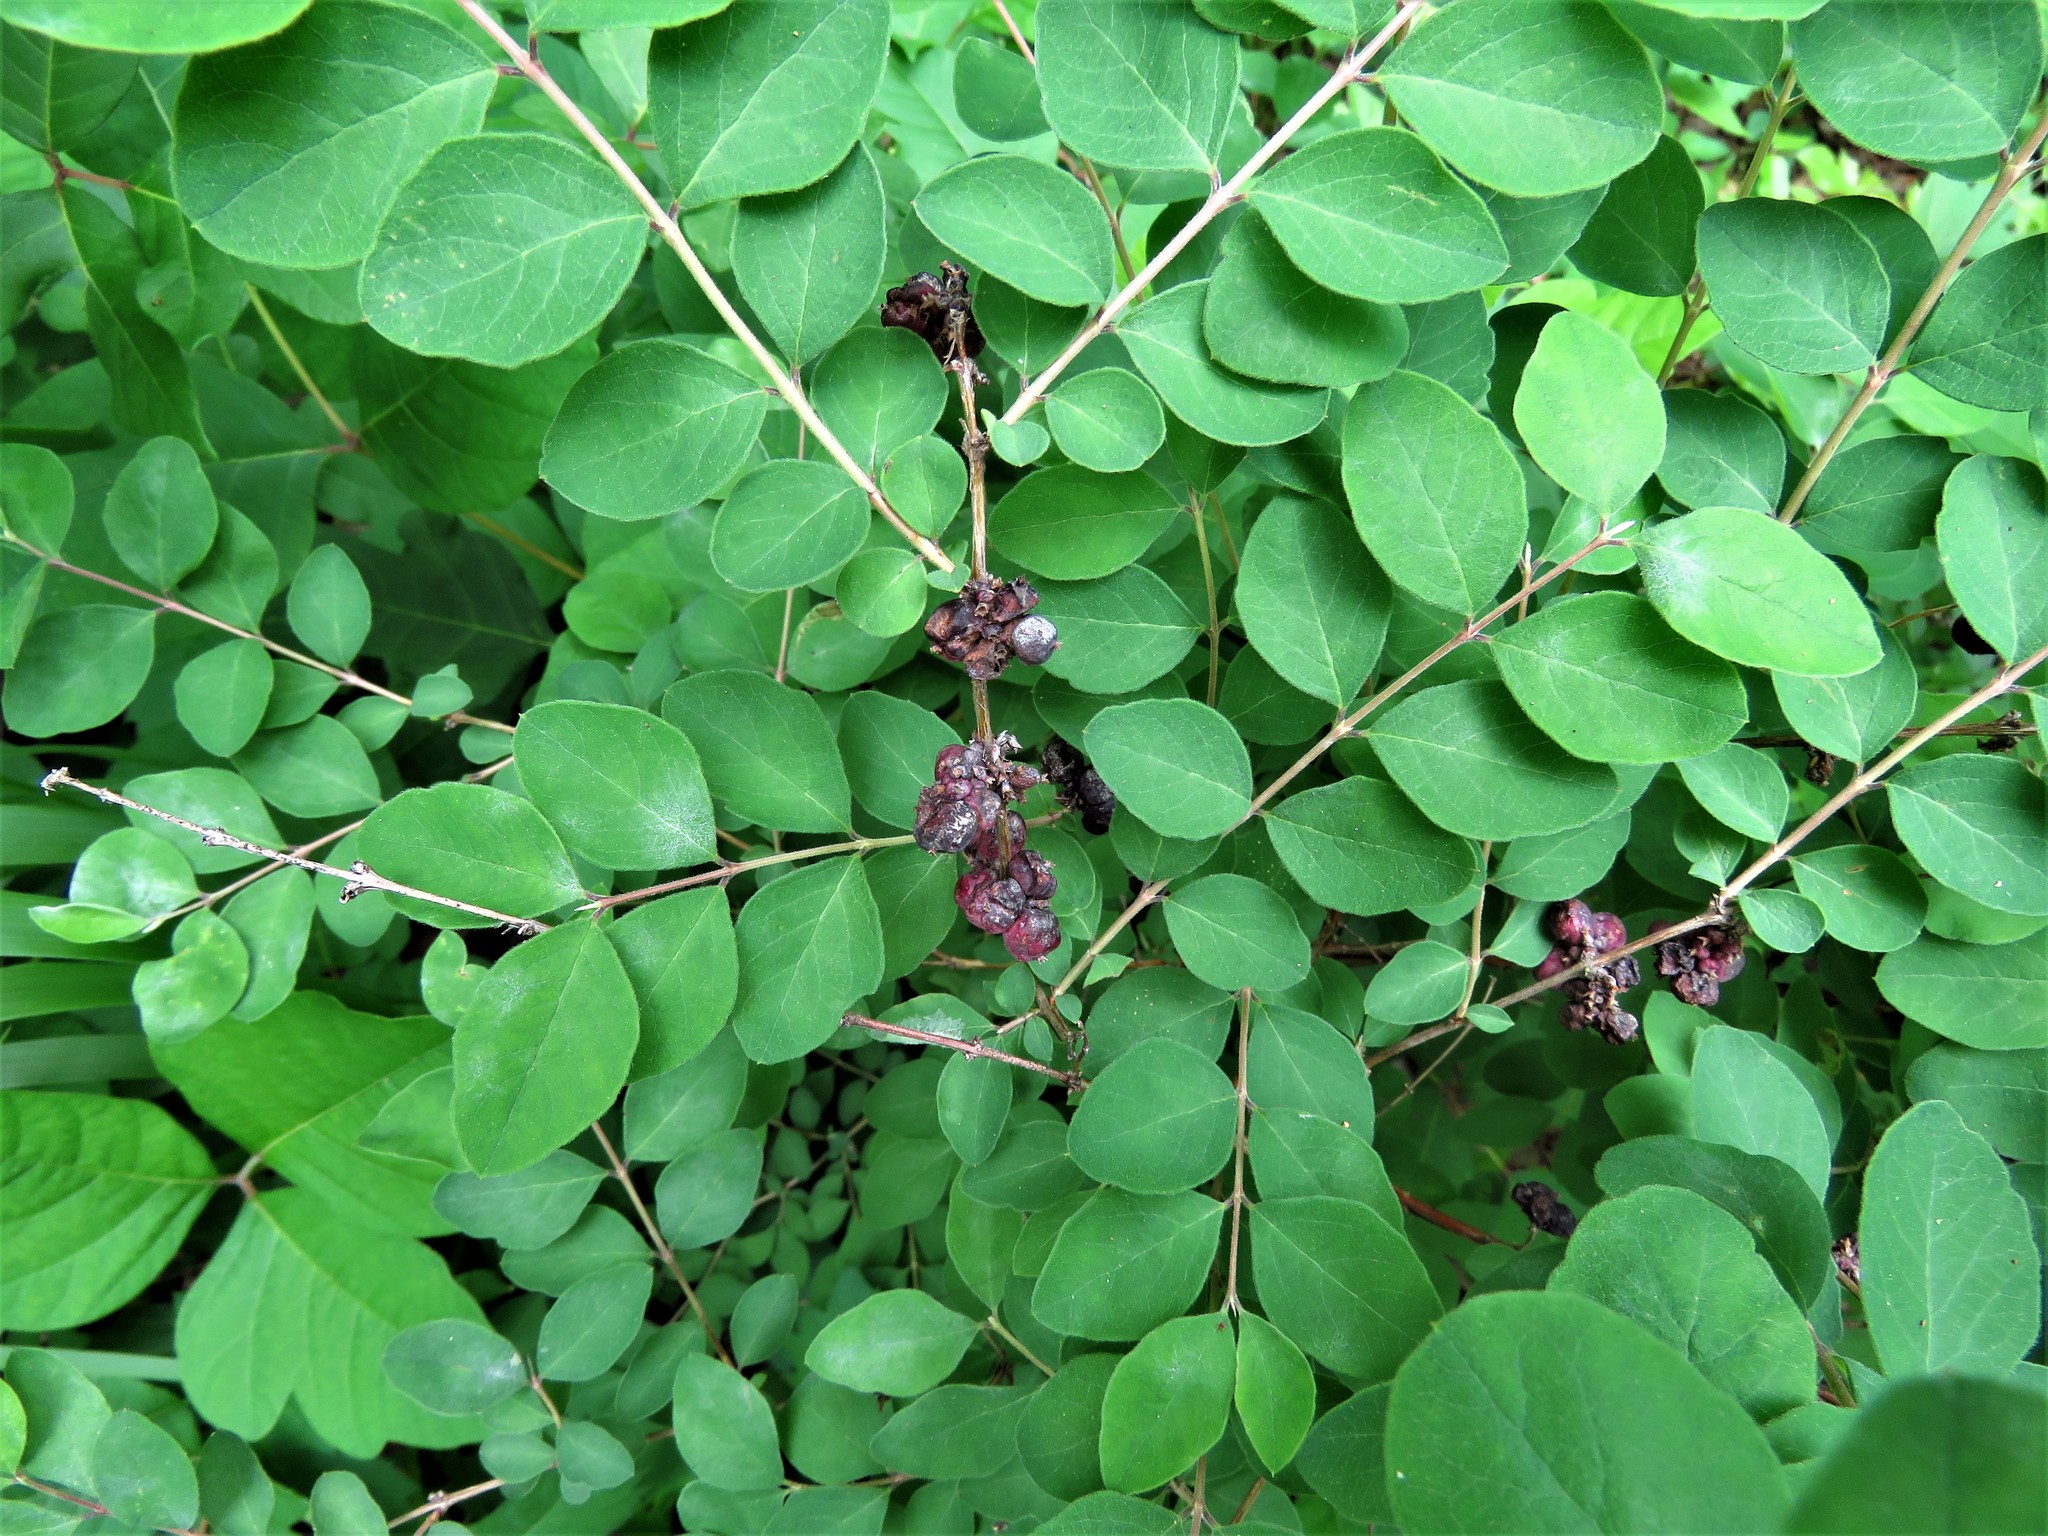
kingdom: Plantae
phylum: Tracheophyta
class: Magnoliopsida
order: Dipsacales
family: Caprifoliaceae
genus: Symphoricarpos
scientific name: Symphoricarpos orbiculatus
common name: Coralberry
